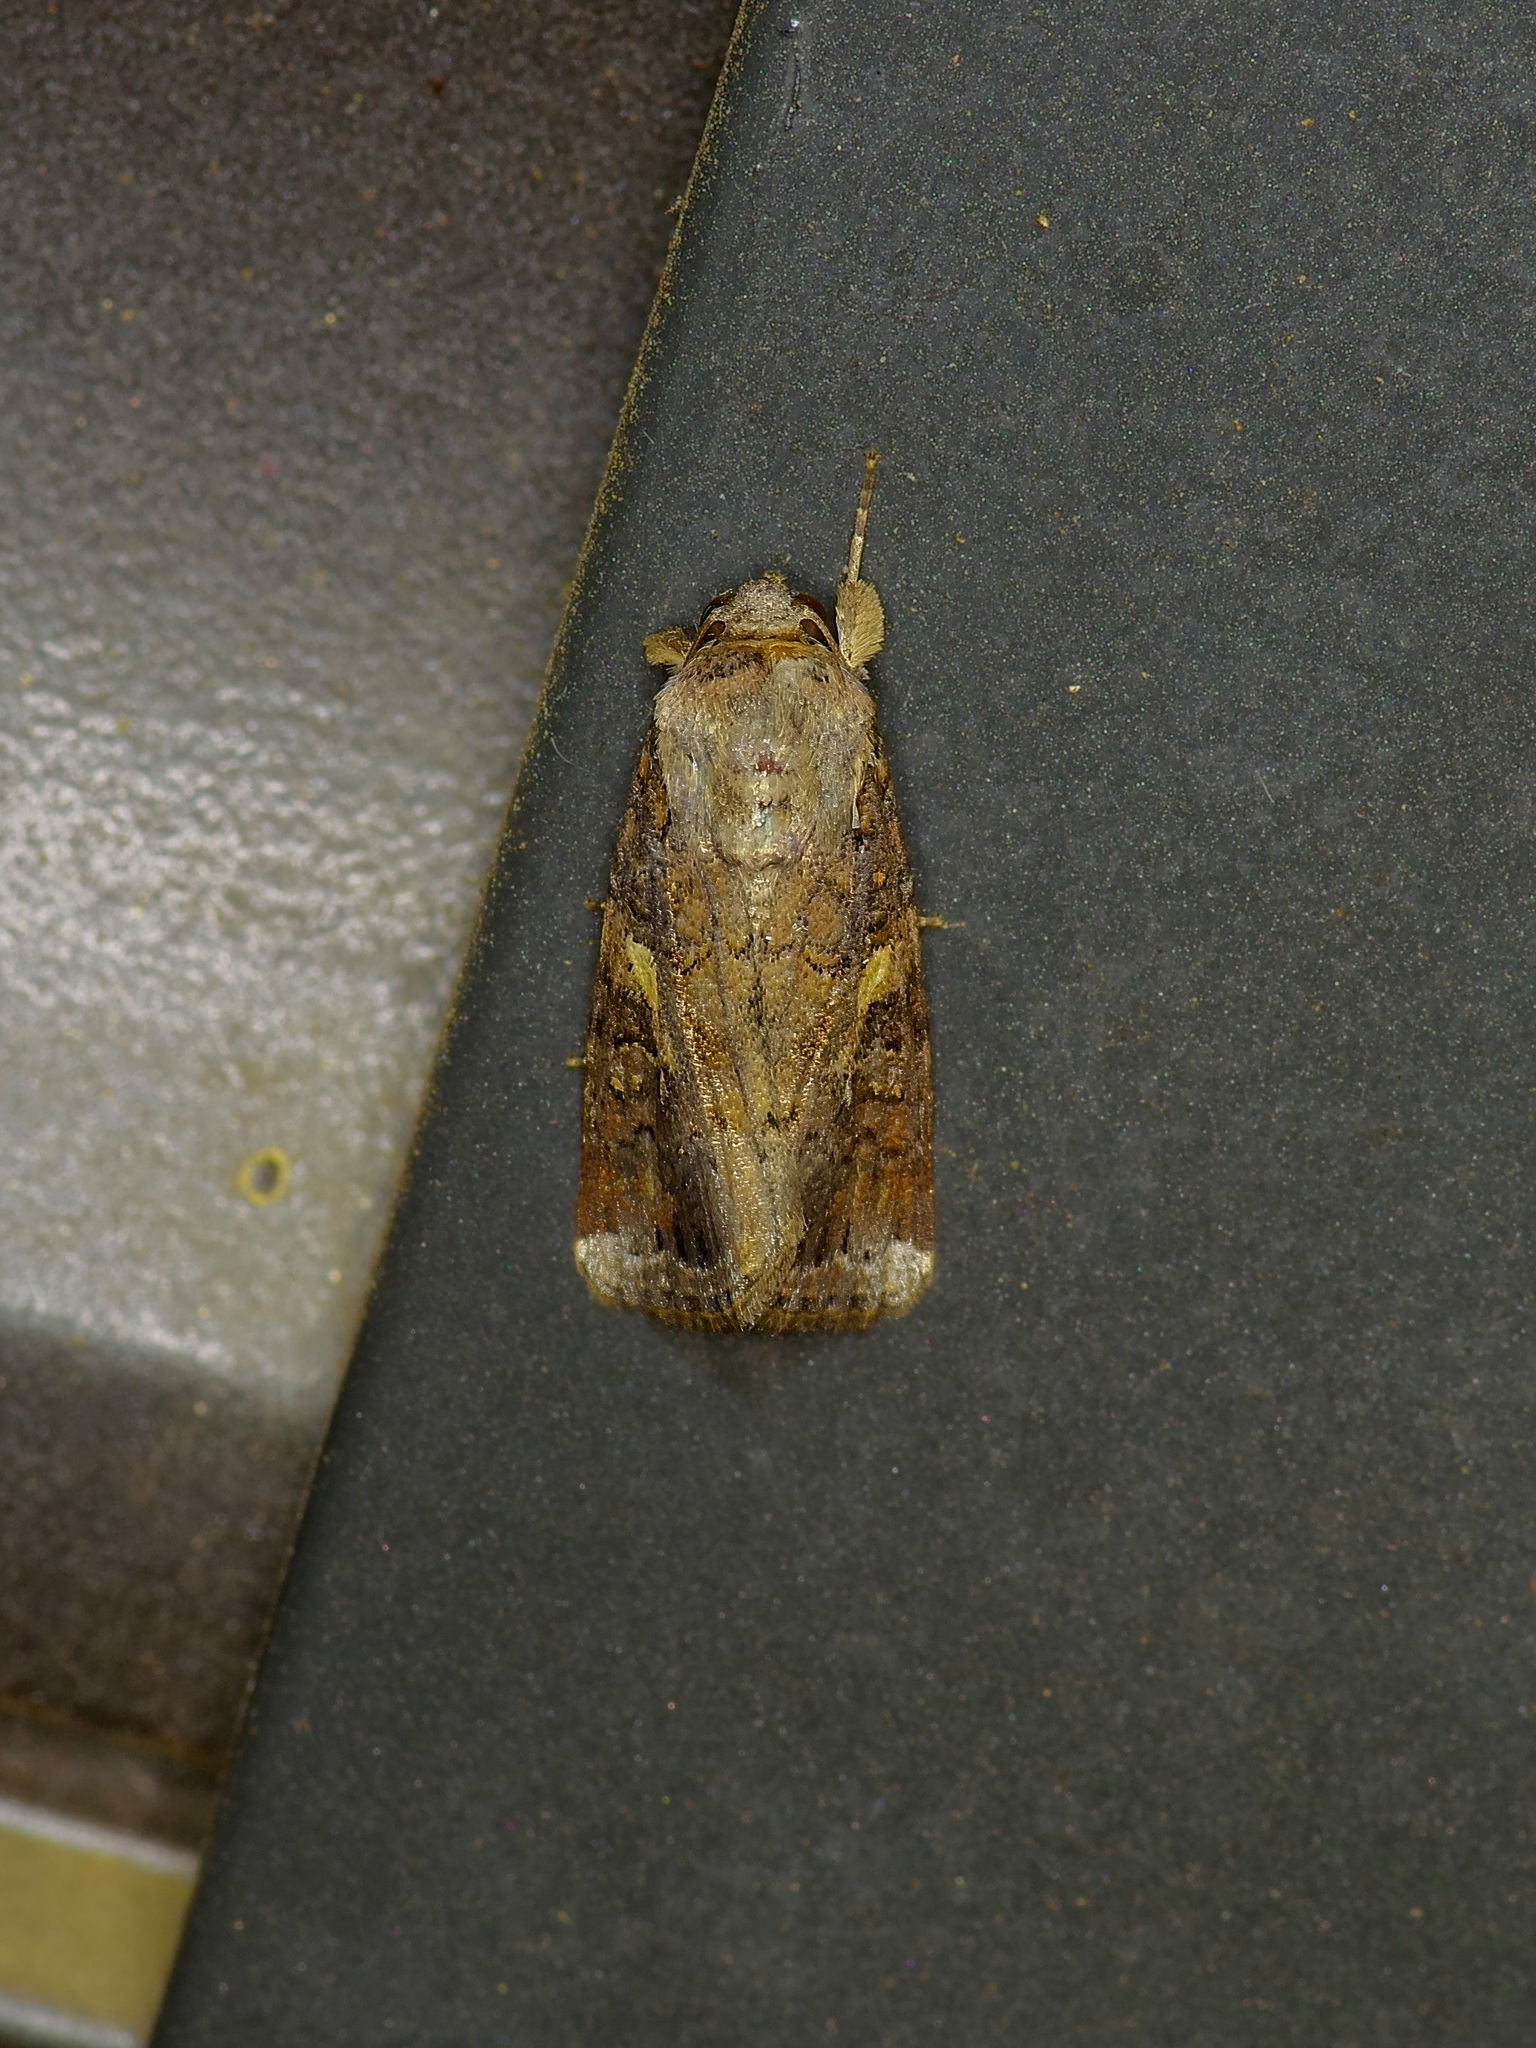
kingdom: Animalia
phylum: Arthropoda
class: Insecta
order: Lepidoptera
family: Noctuidae
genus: Spodoptera
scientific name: Spodoptera frugiperda
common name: Fall armyworm
